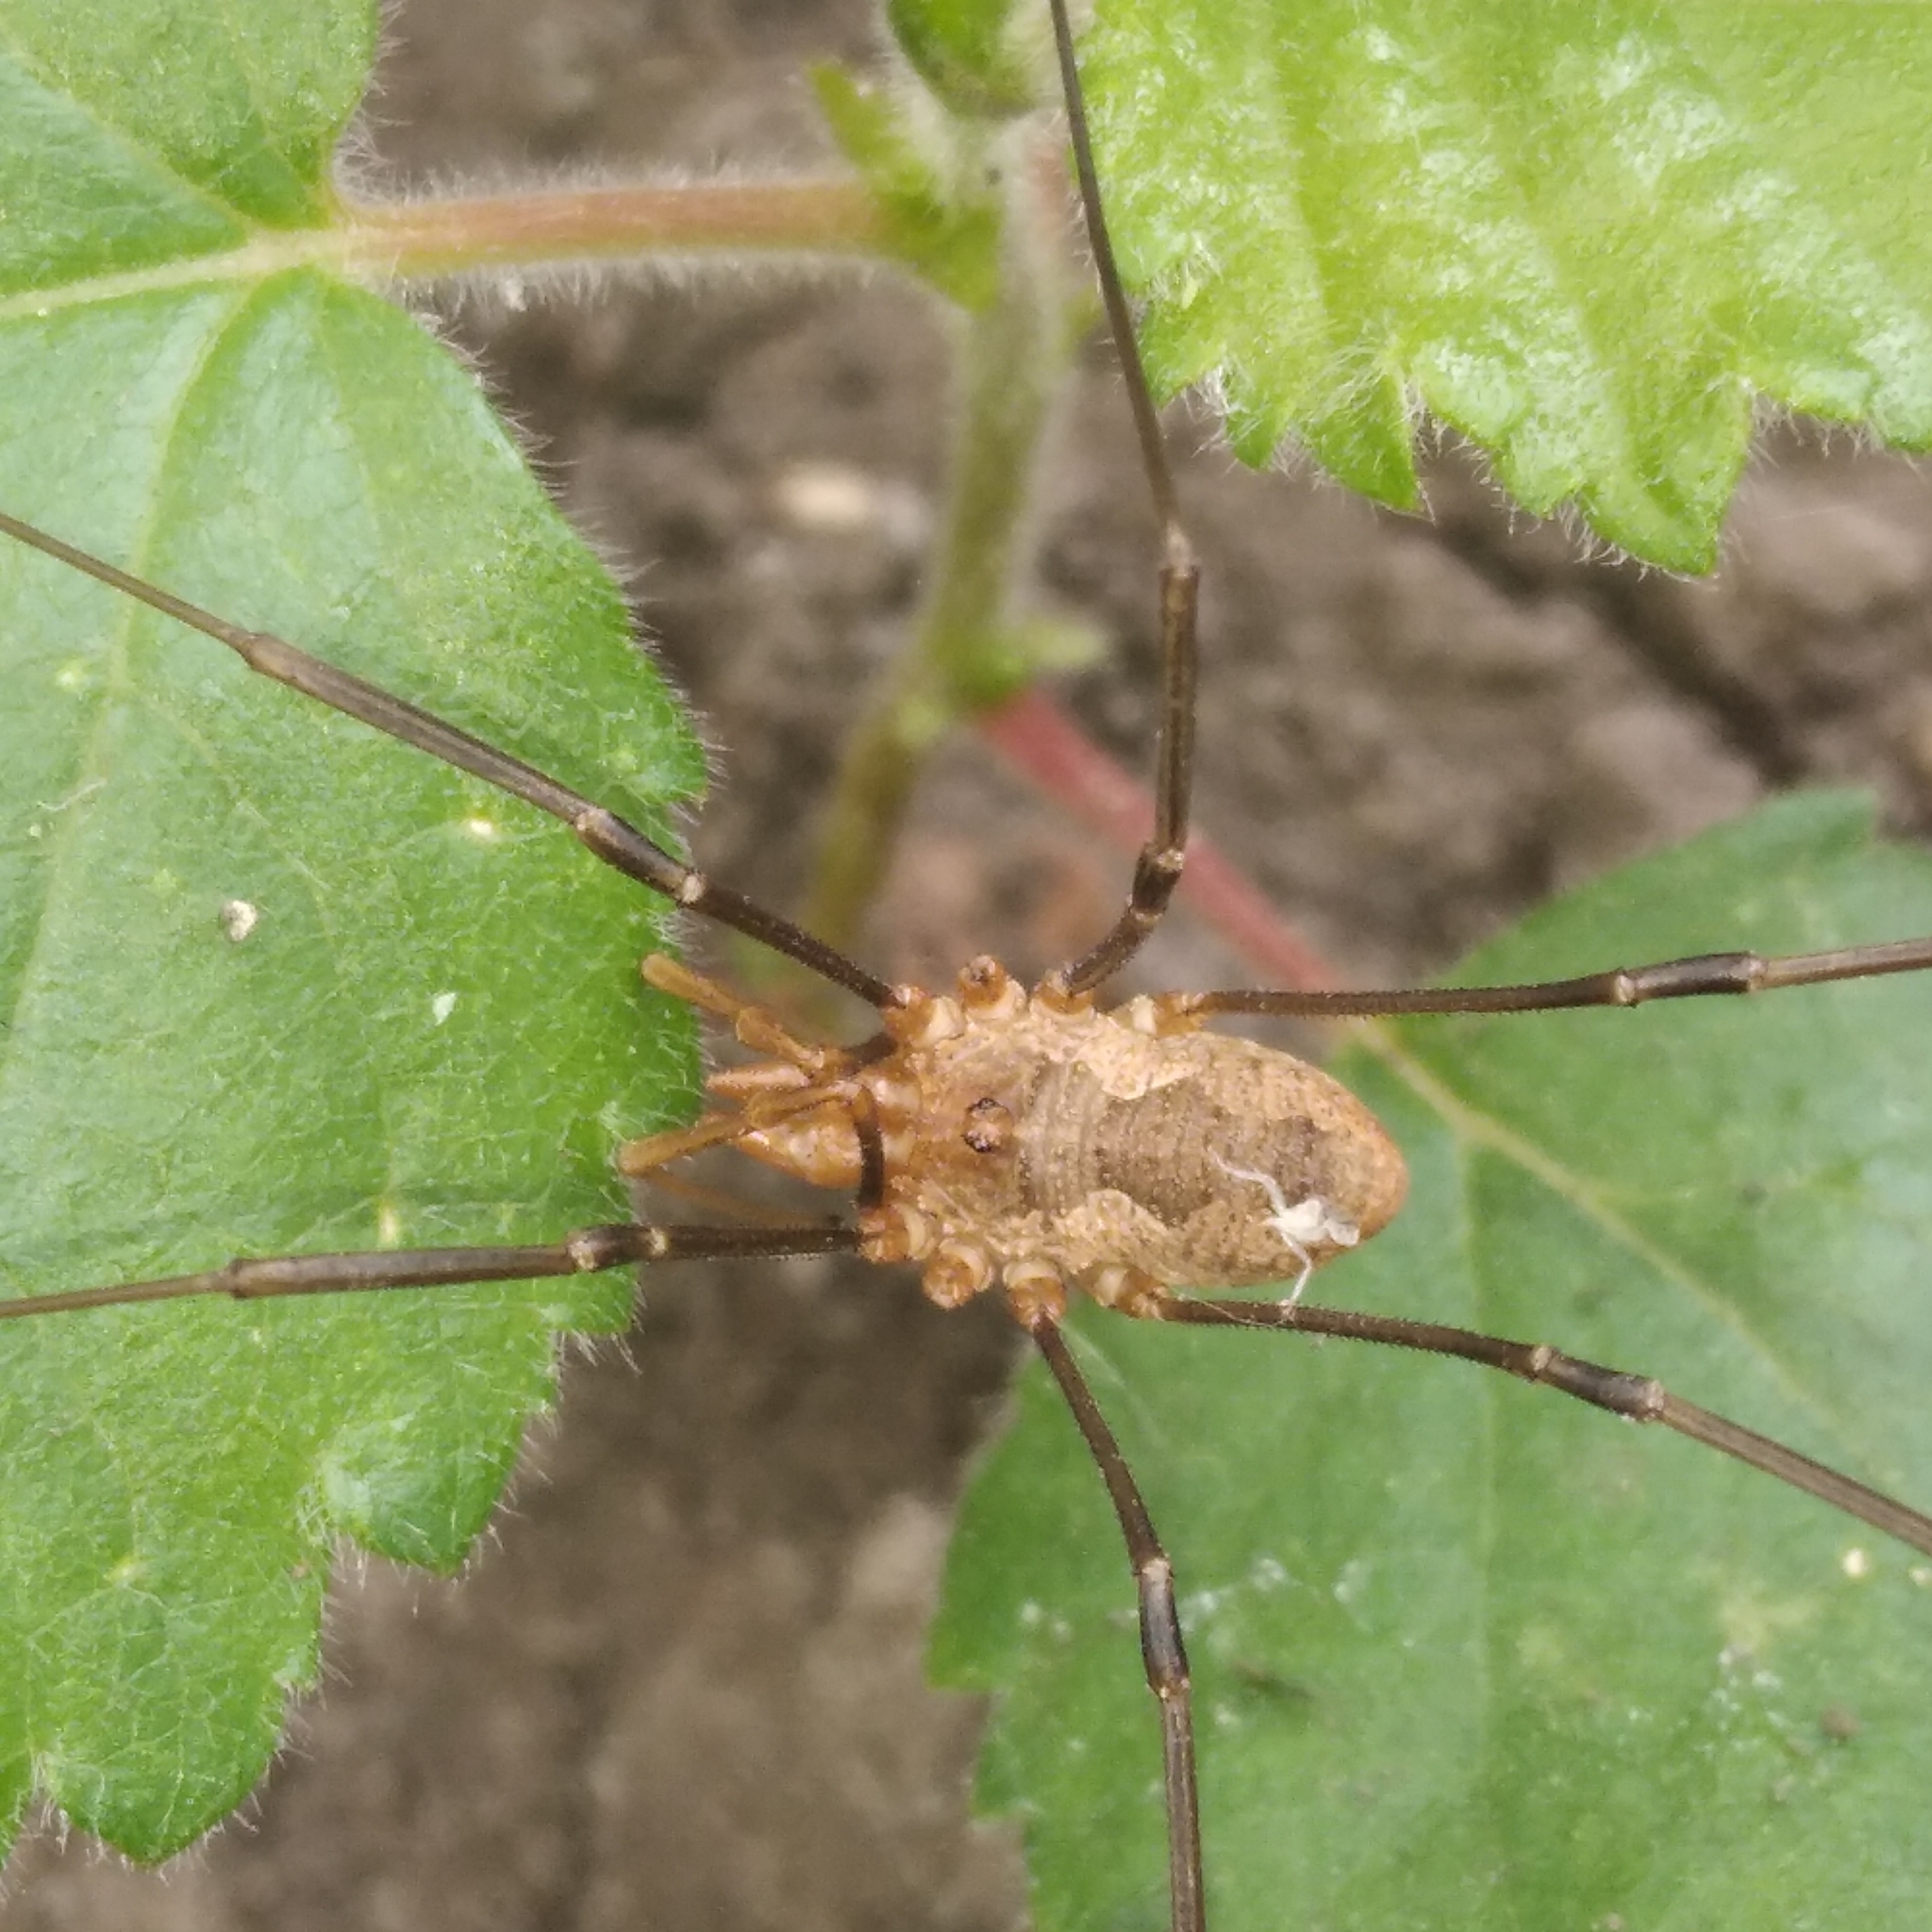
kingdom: Animalia
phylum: Arthropoda
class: Arachnida
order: Opiliones
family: Phalangiidae
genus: Phalangium
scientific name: Phalangium opilio
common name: Daddy longleg
